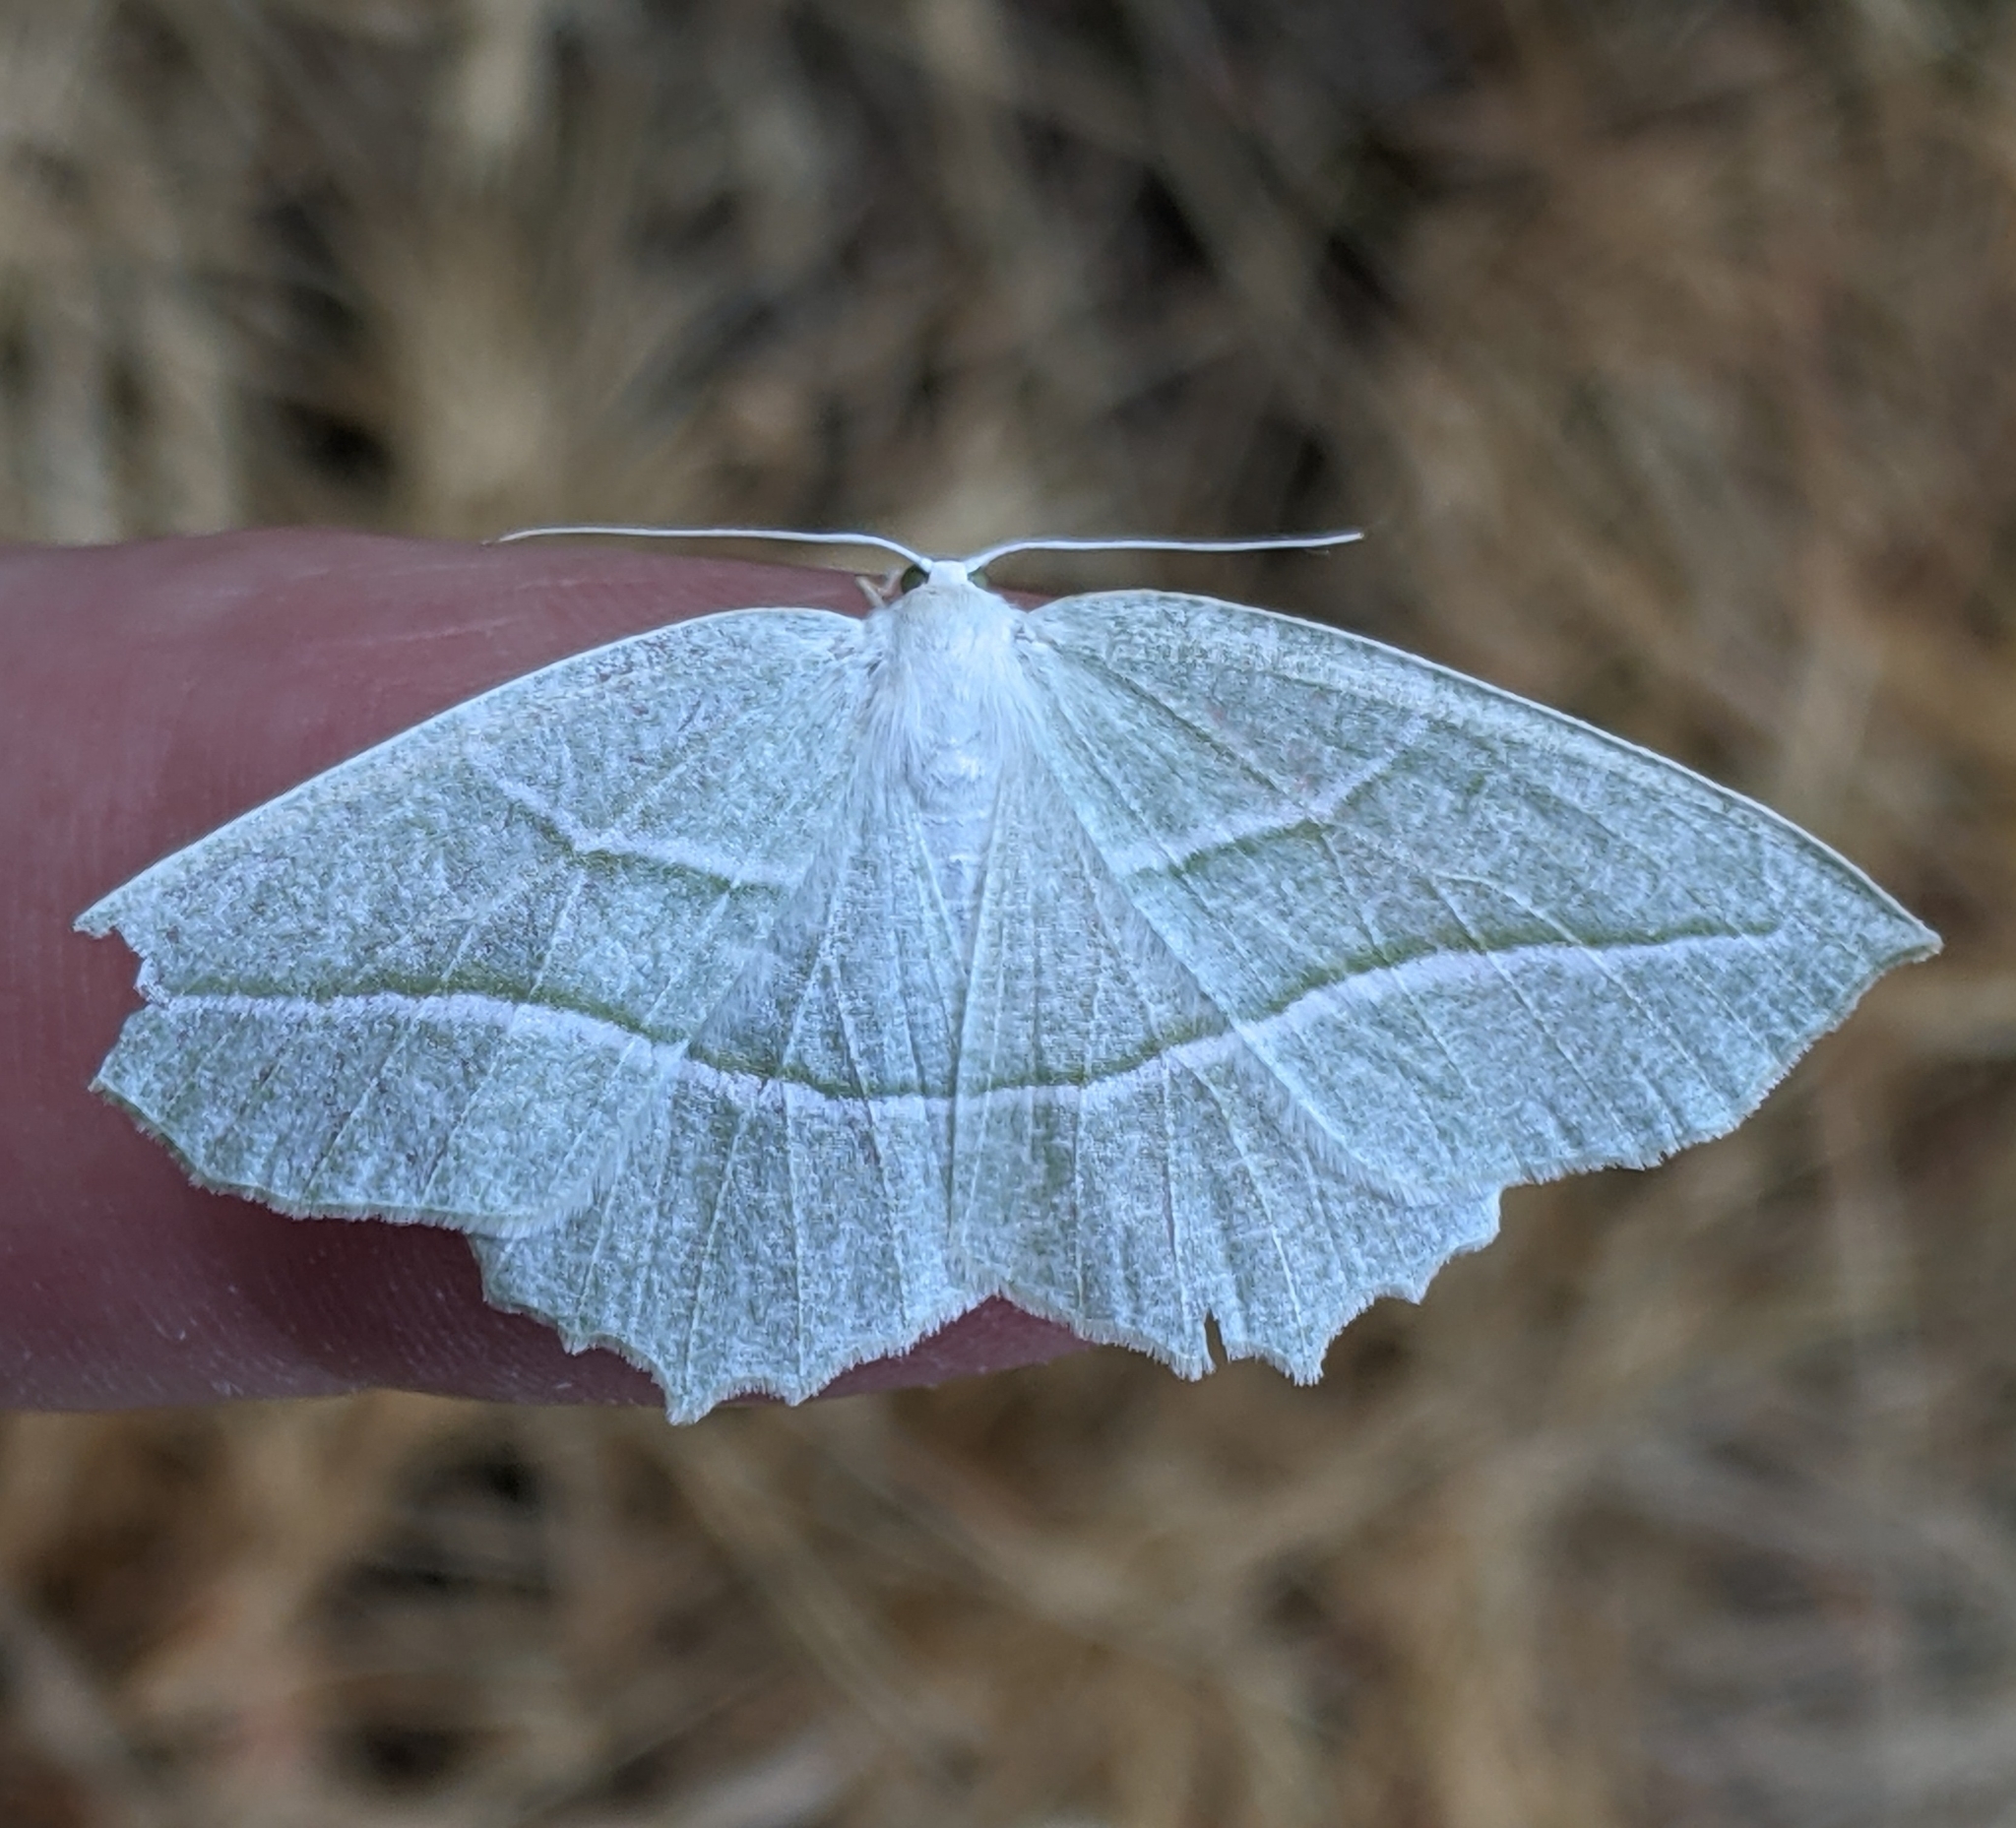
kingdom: Animalia
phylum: Arthropoda
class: Insecta
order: Lepidoptera
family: Geometridae
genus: Campaea
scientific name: Campaea perlata
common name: Fringed looper
